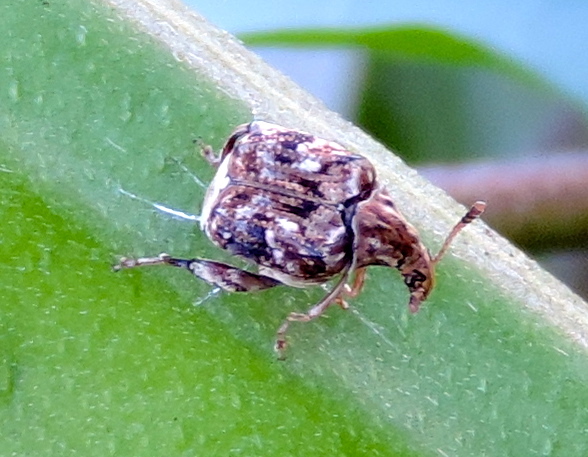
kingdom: Animalia
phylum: Arthropoda
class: Insecta
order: Coleoptera
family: Chrysomelidae
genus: Merobruchus
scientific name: Merobruchus
